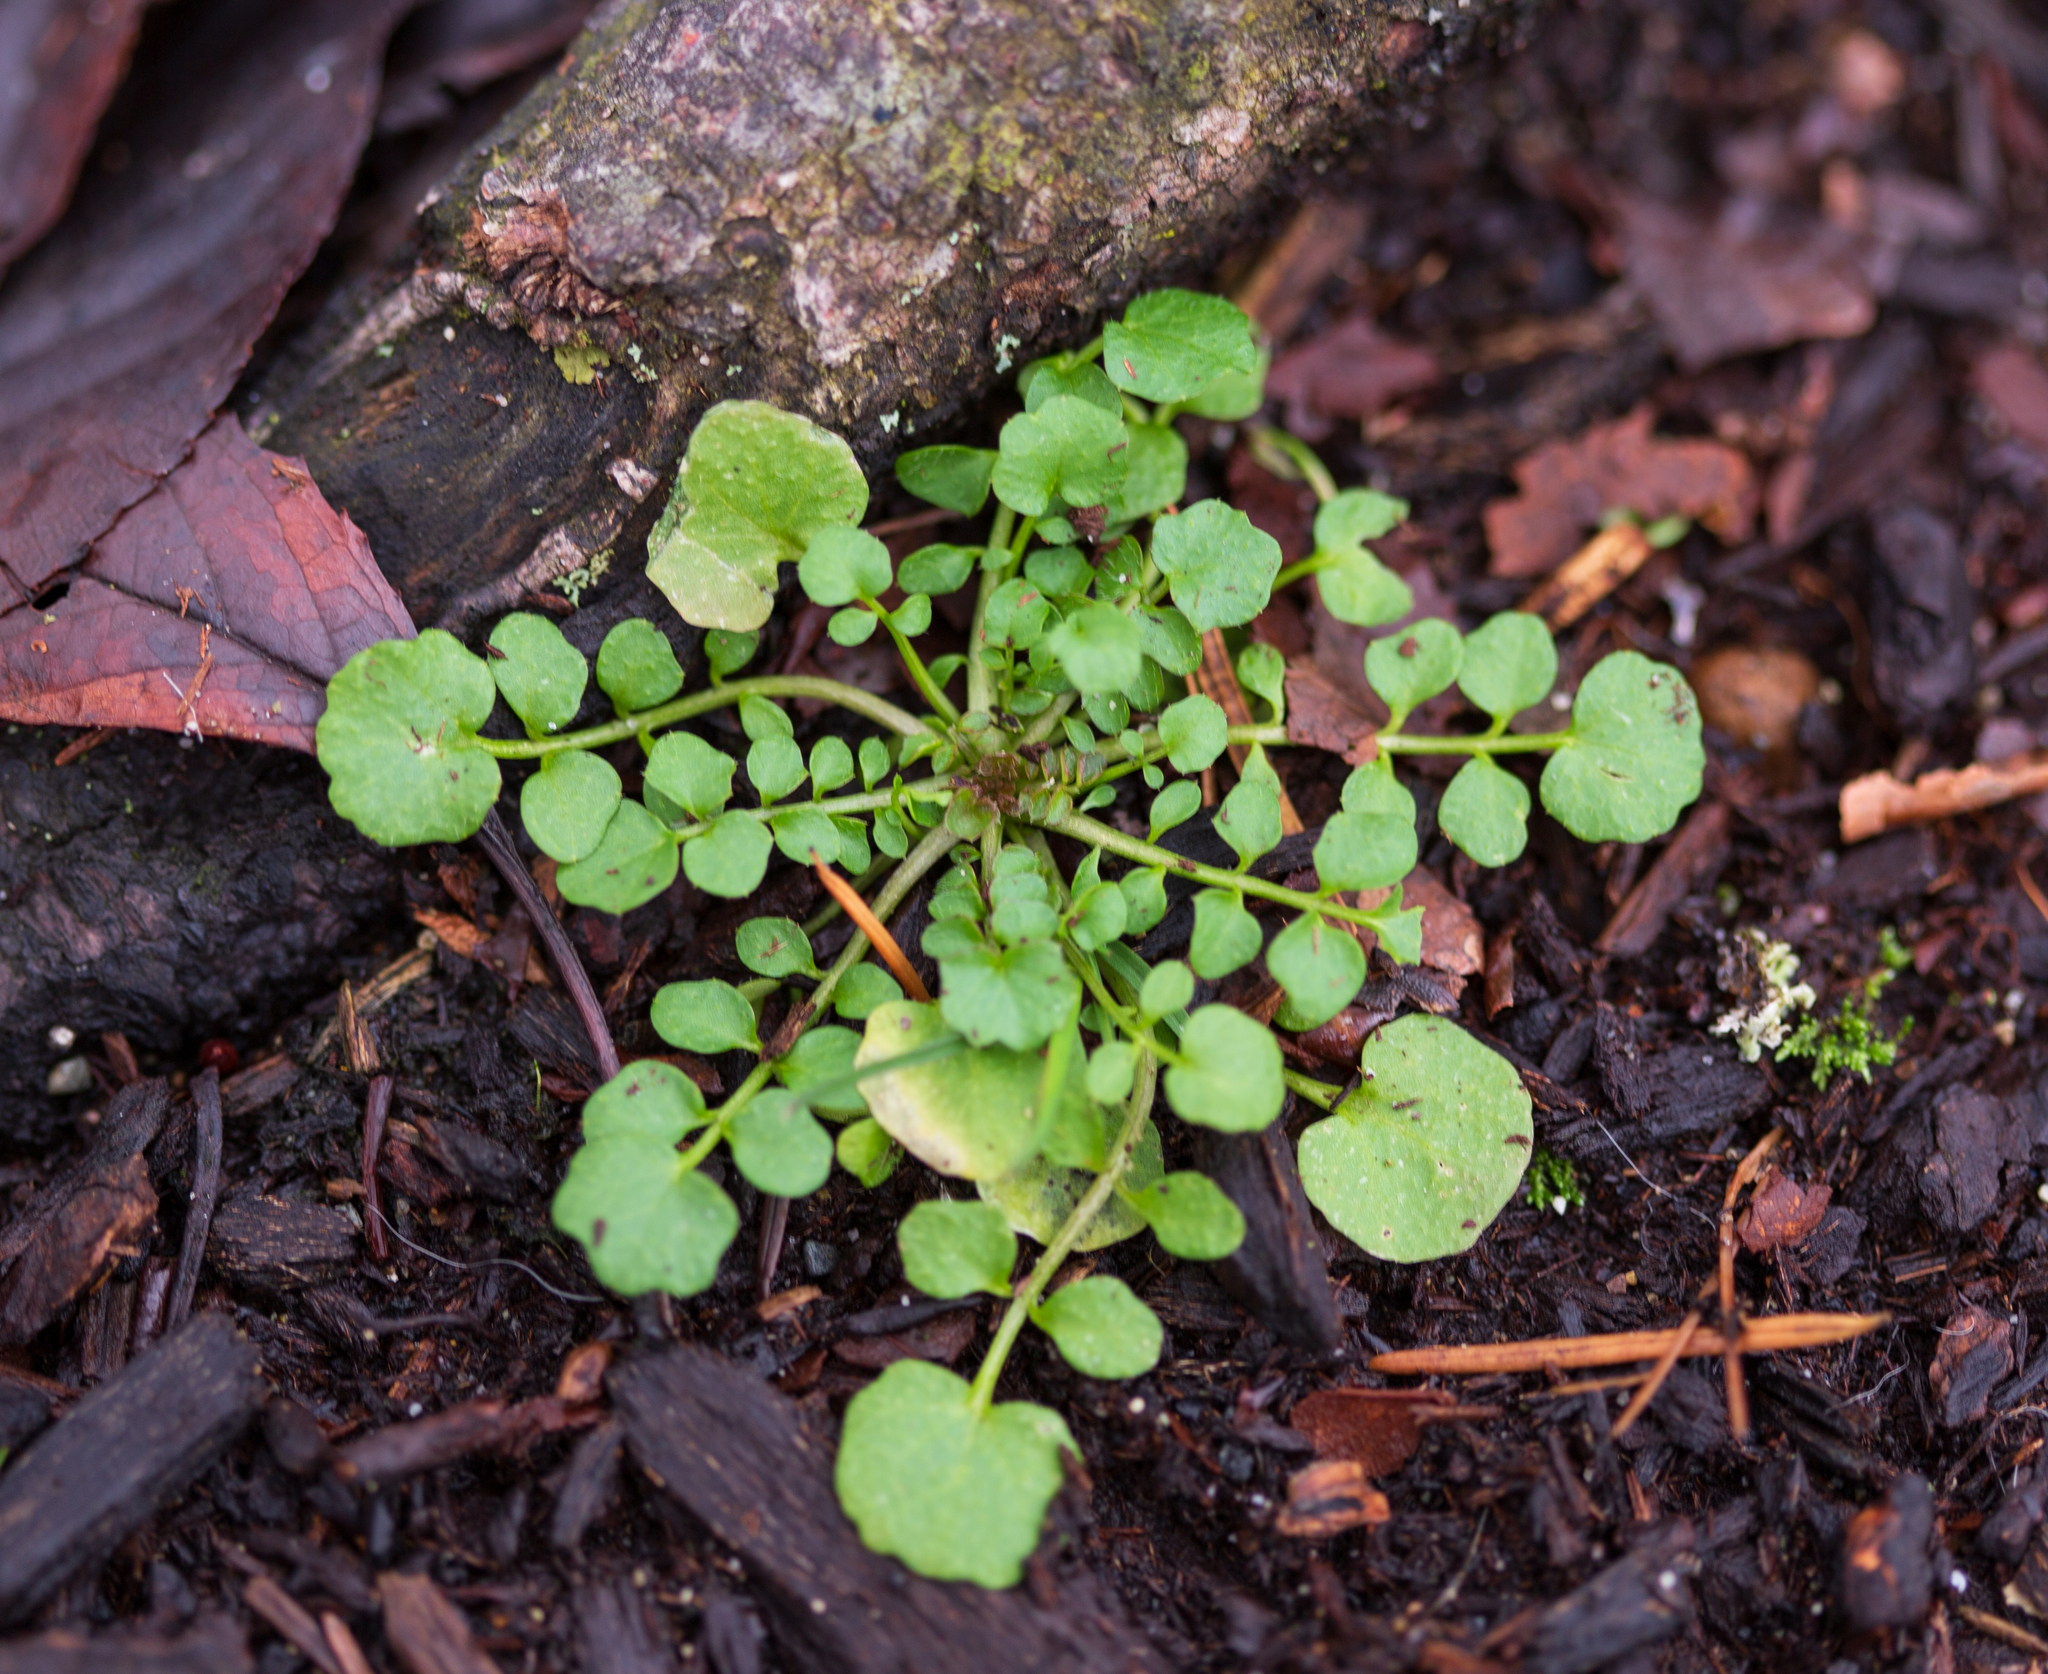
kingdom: Plantae
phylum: Tracheophyta
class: Magnoliopsida
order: Brassicales
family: Brassicaceae
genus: Cardamine
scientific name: Cardamine hirsuta
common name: Hairy bittercress
